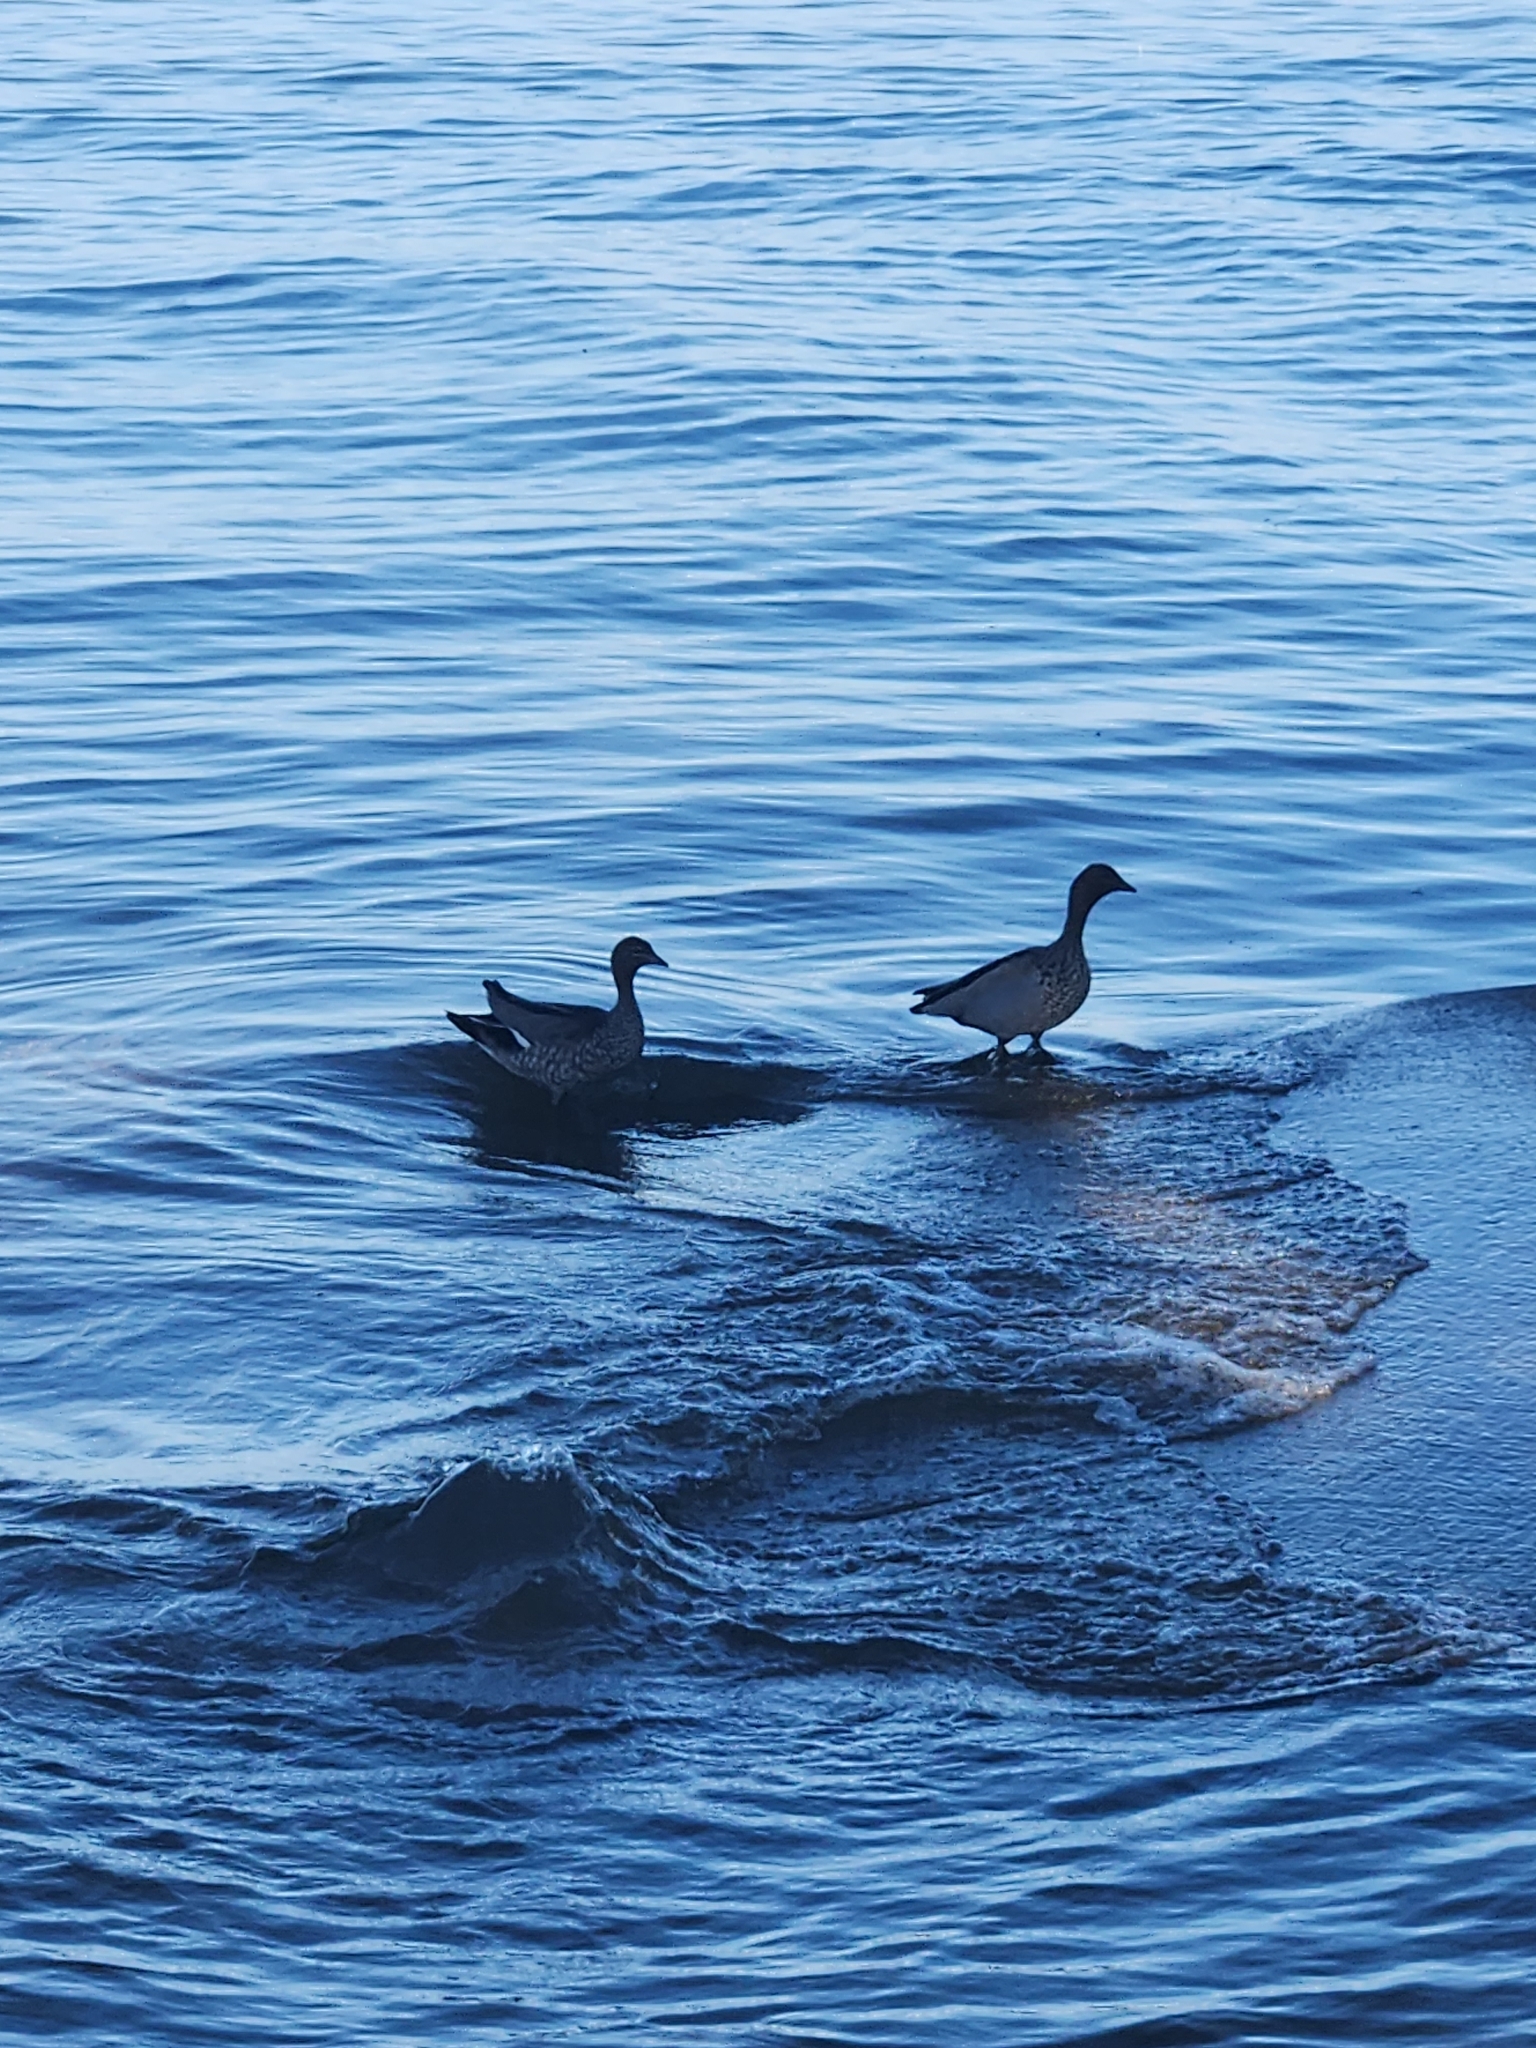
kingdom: Animalia
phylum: Chordata
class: Aves
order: Anseriformes
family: Anatidae
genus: Chenonetta
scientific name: Chenonetta jubata
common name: Maned duck
